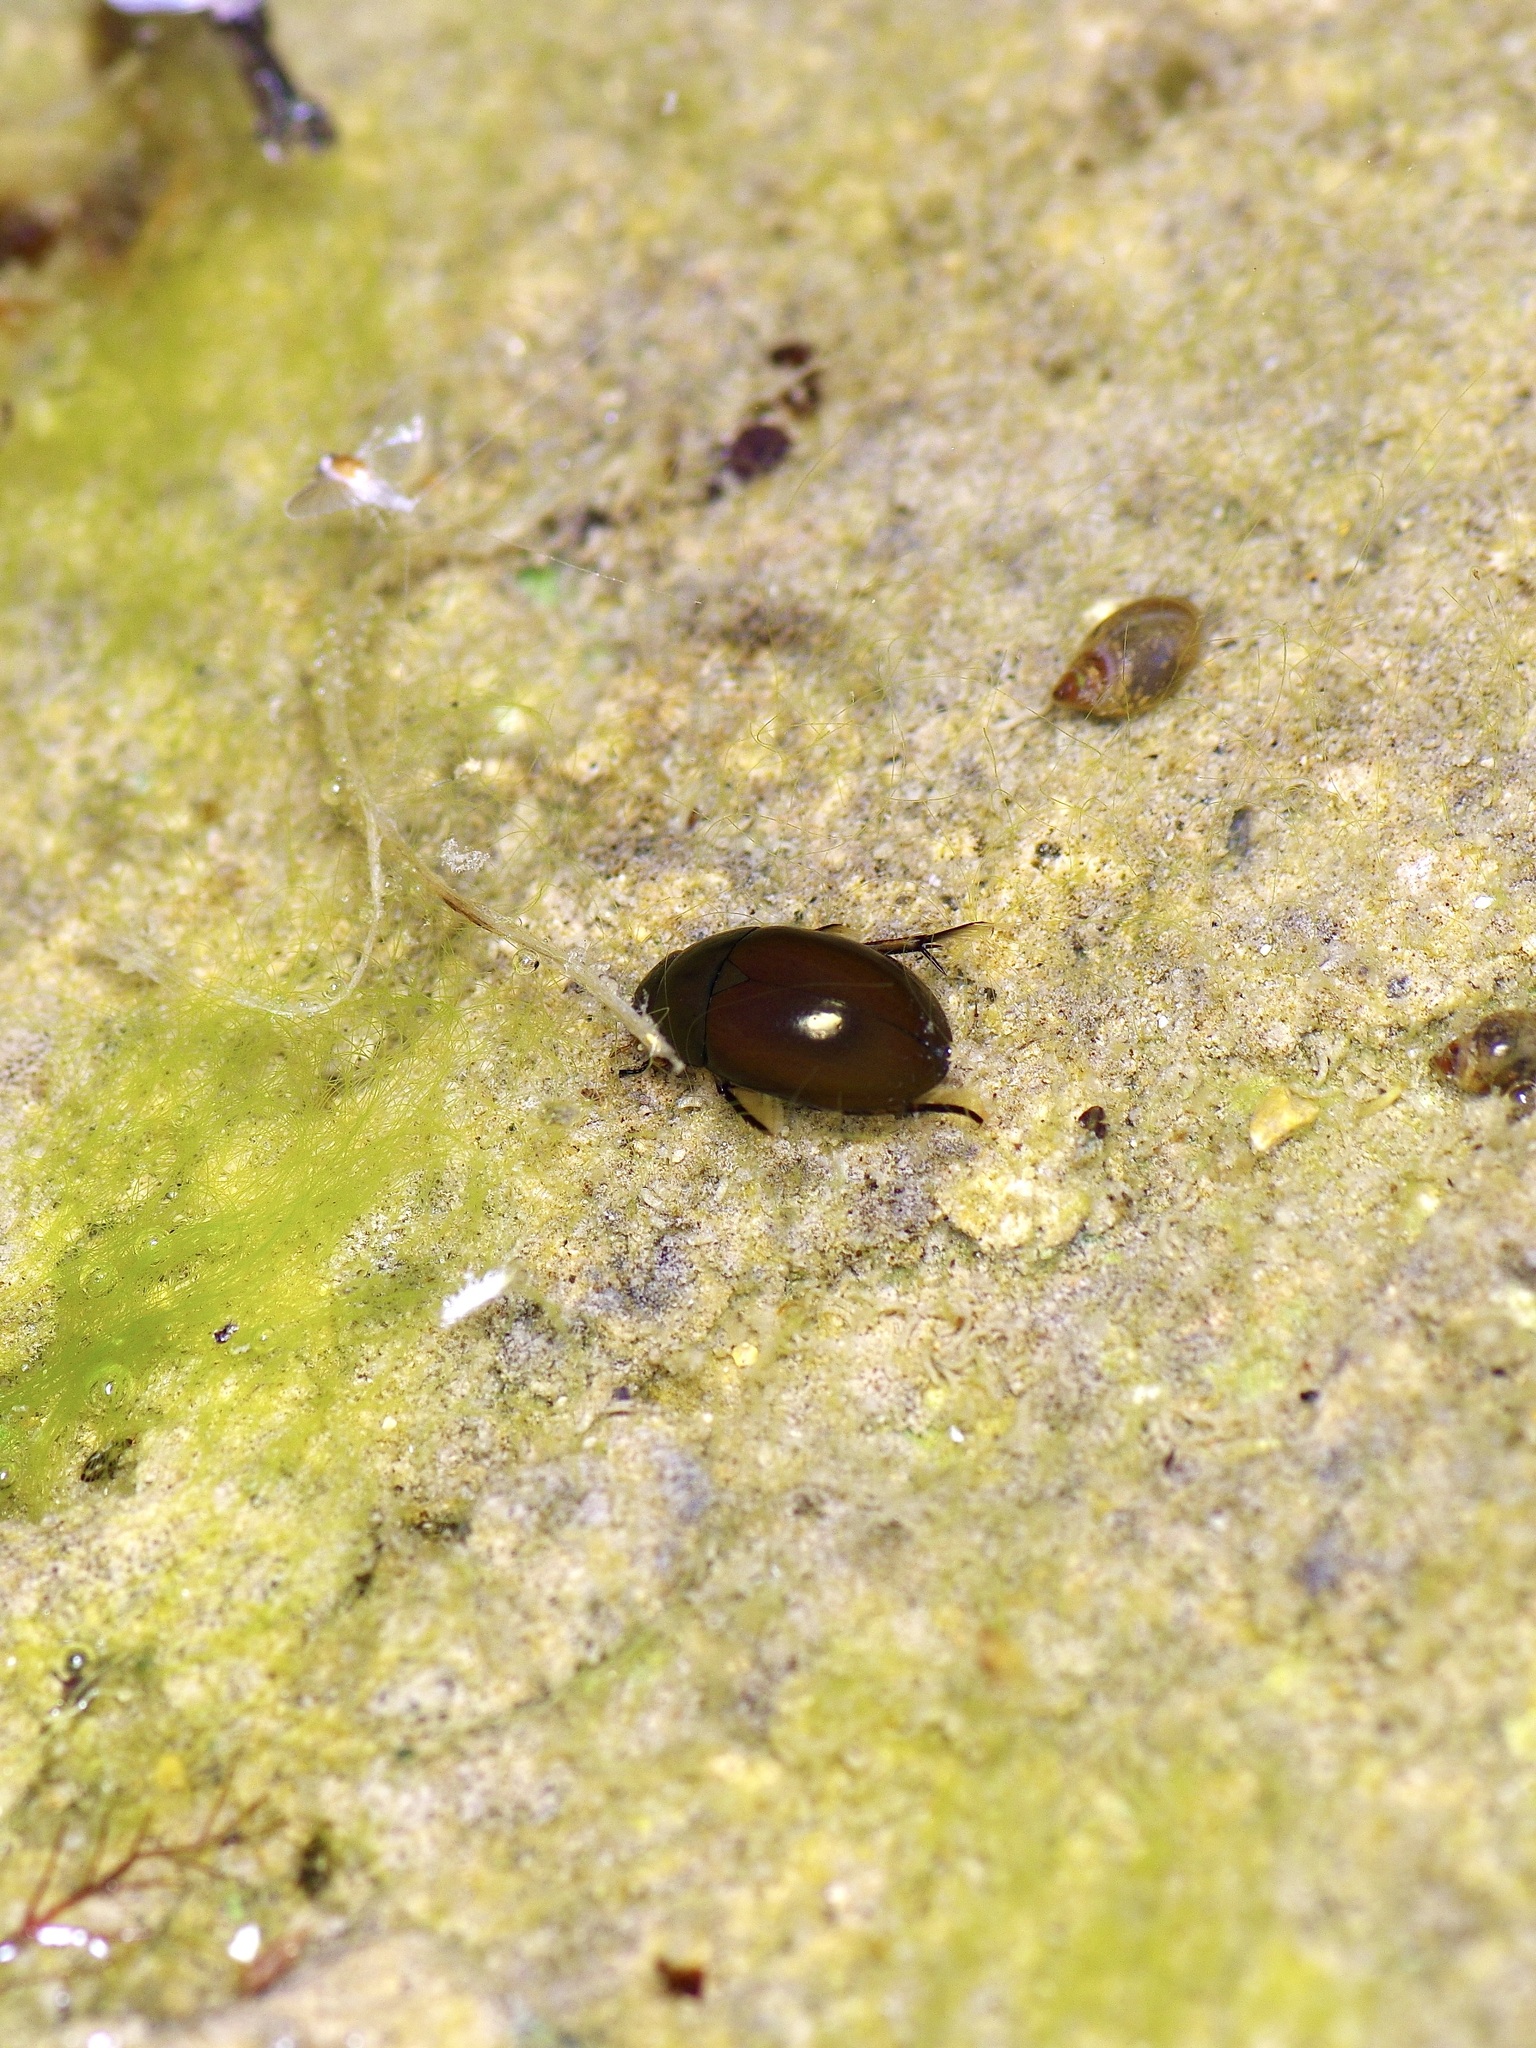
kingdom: Animalia
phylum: Arthropoda
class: Insecta
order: Coleoptera
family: Hydrophilidae
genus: Tropisternus
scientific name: Tropisternus
